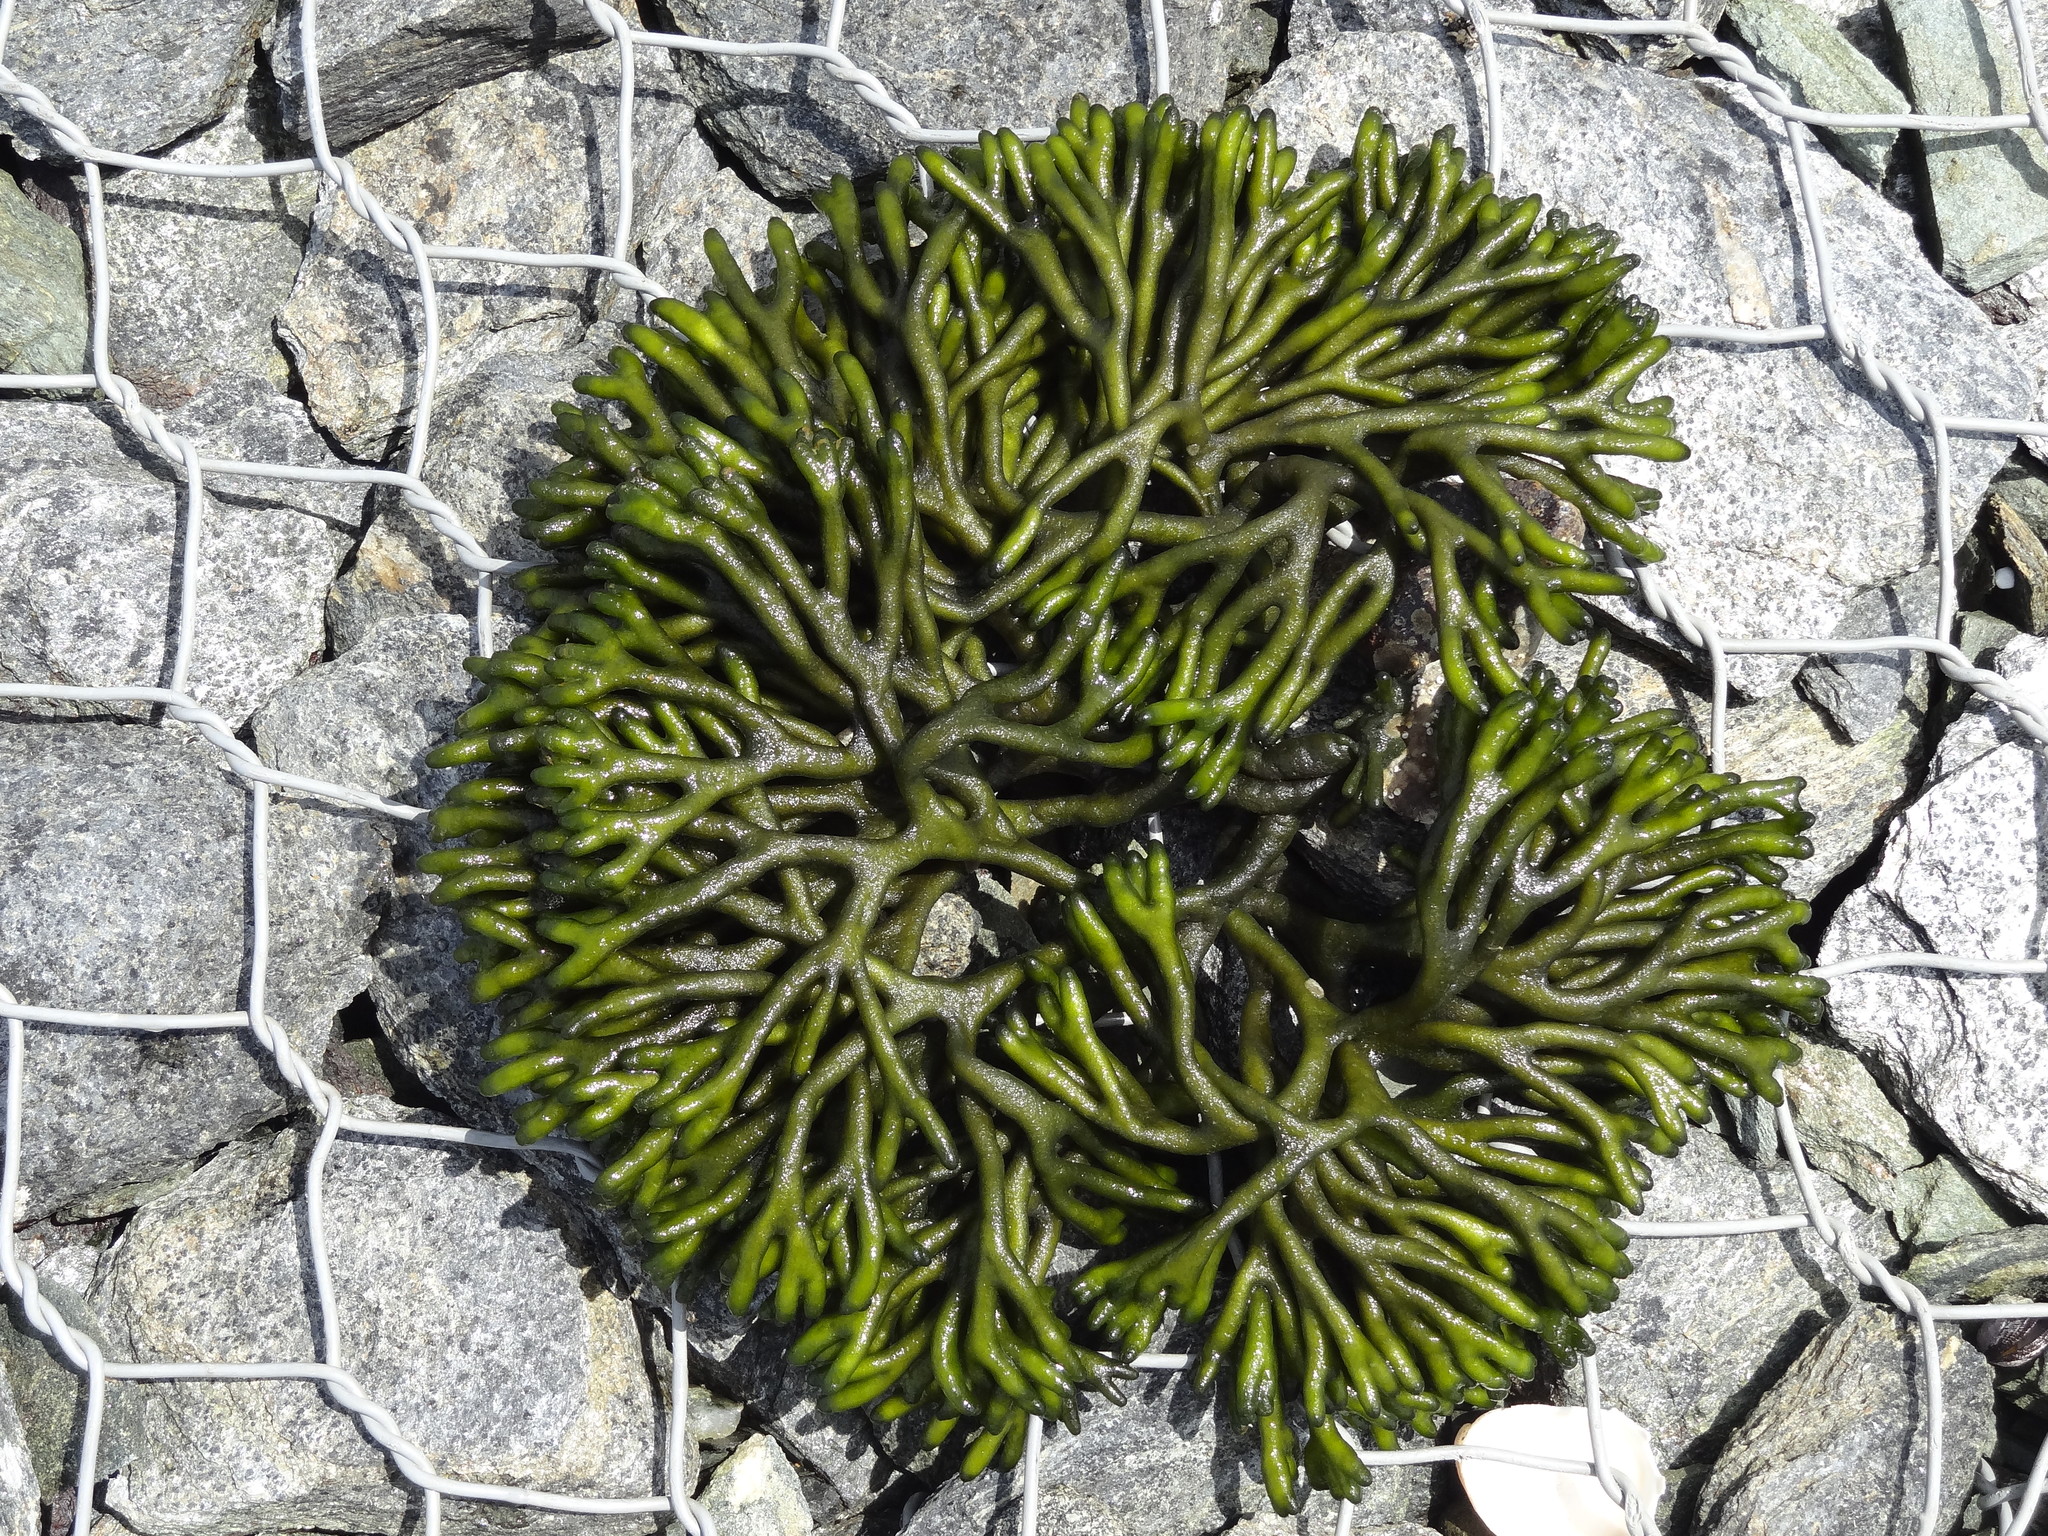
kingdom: Plantae
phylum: Chlorophyta
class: Ulvophyceae
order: Bryopsidales
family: Codiaceae
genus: Codium
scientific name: Codium fragile
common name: Dead man's fingers
